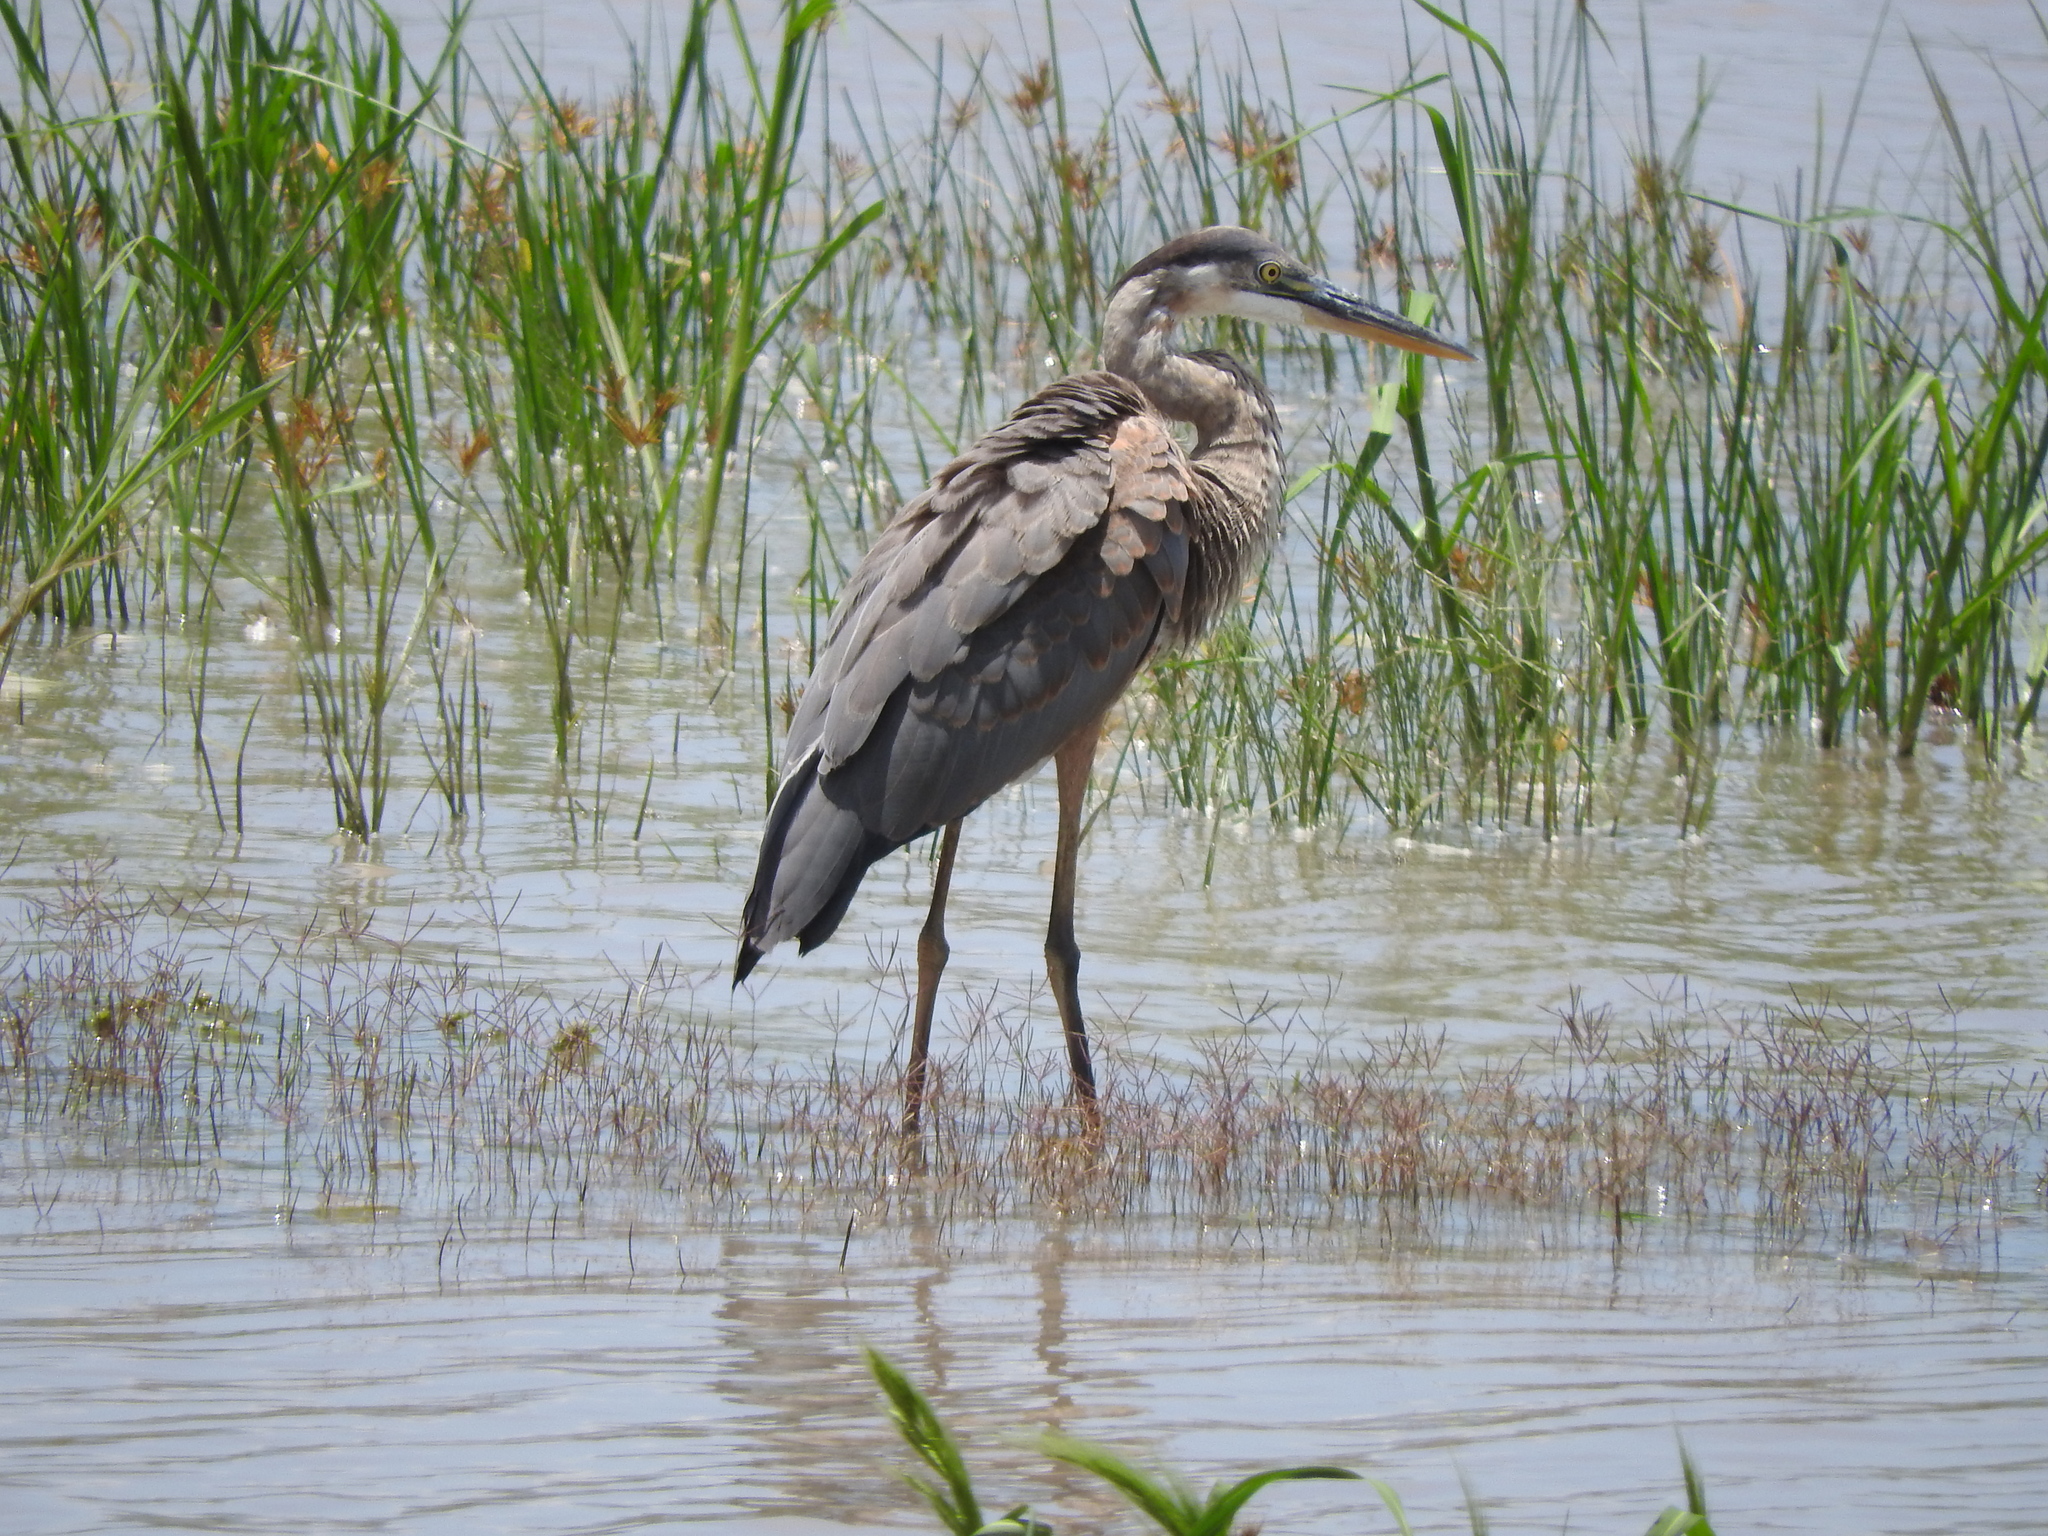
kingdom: Animalia
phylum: Chordata
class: Aves
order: Pelecaniformes
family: Ardeidae
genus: Ardea
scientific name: Ardea herodias
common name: Great blue heron
